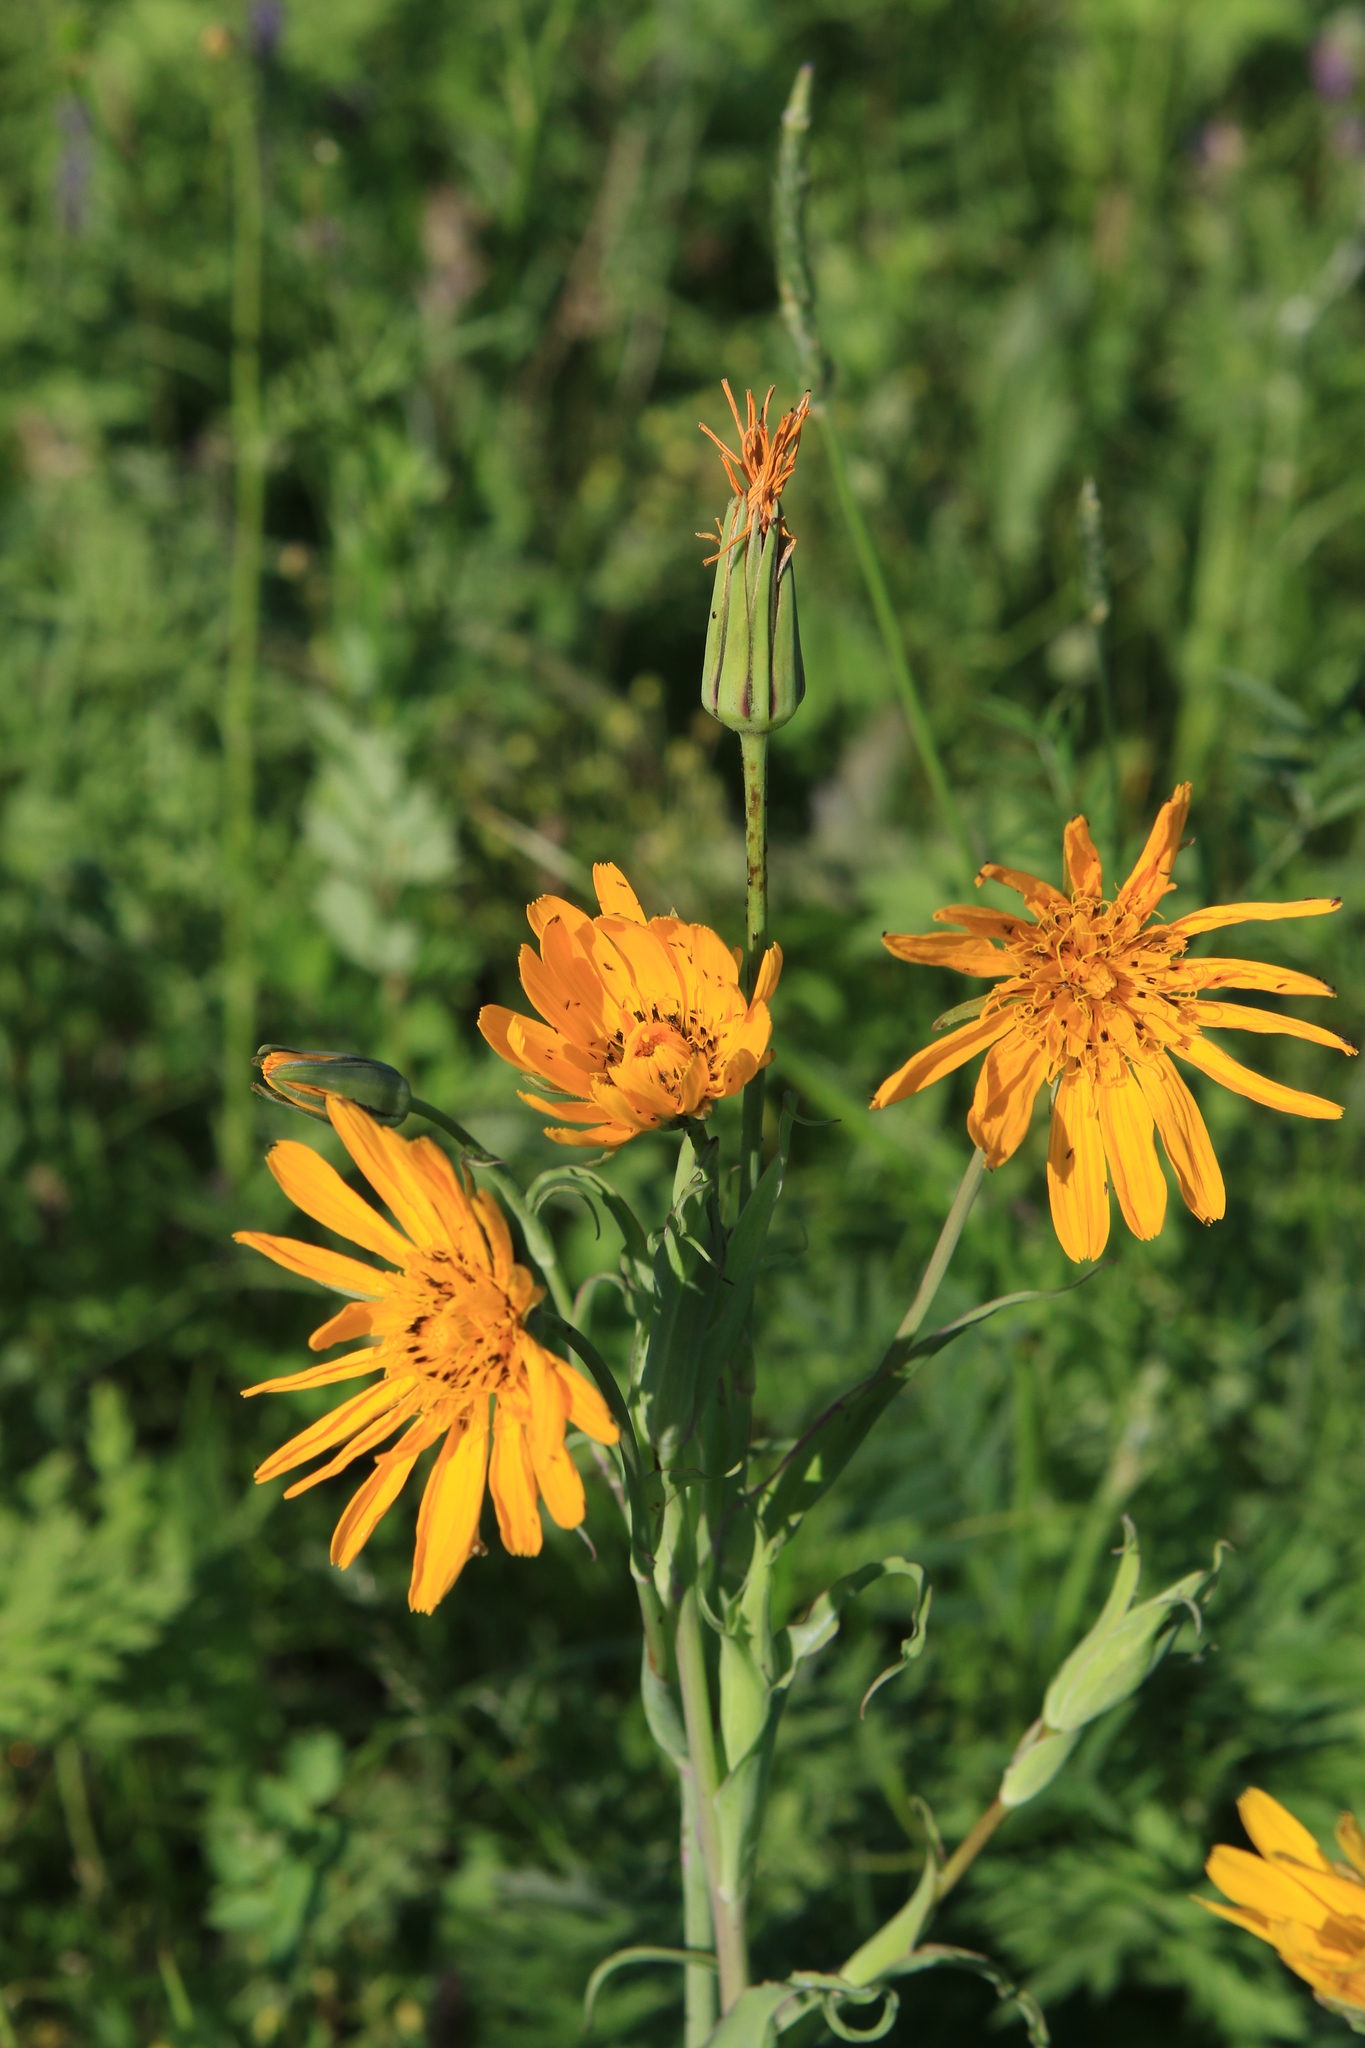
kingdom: Plantae
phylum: Tracheophyta
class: Magnoliopsida
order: Asterales
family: Asteraceae
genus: Tragopogon
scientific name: Tragopogon orientalis
